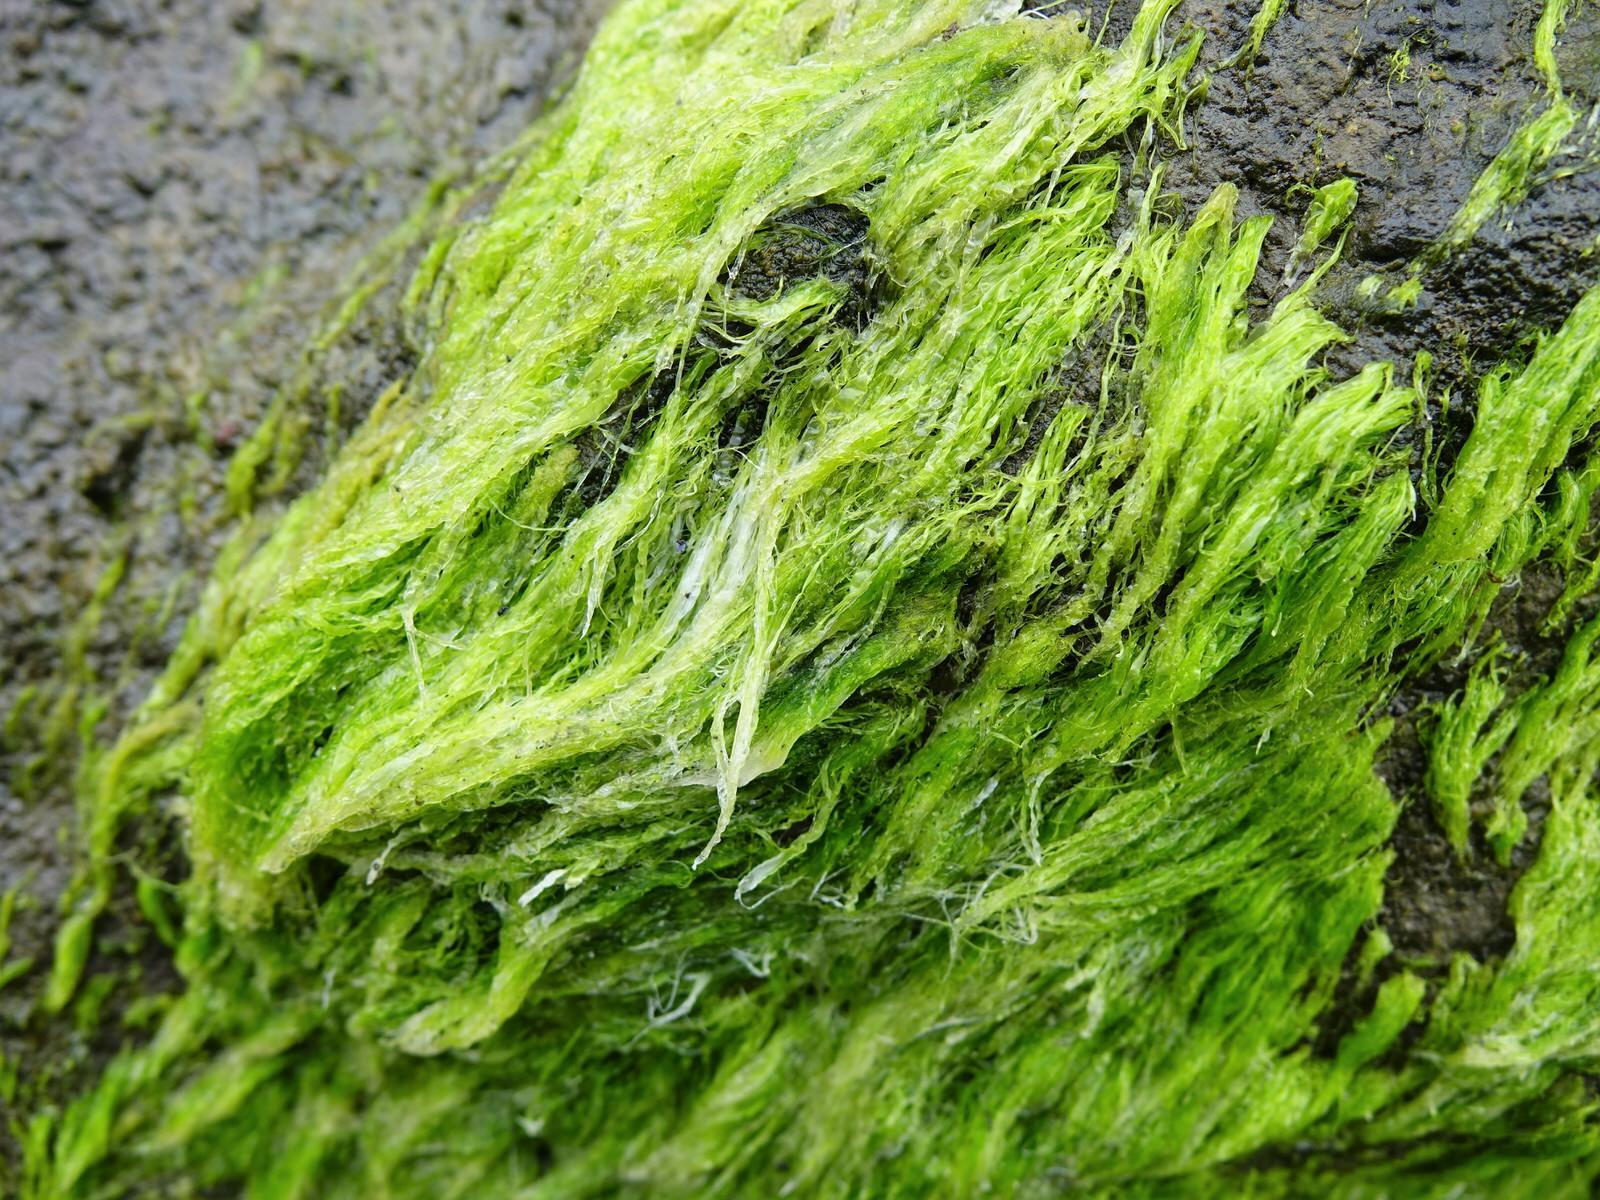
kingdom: Plantae
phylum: Chlorophyta
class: Ulvophyceae
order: Ulvales
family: Ulvaceae
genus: Ulva
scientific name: Ulva intestinalis
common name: Gut weed
